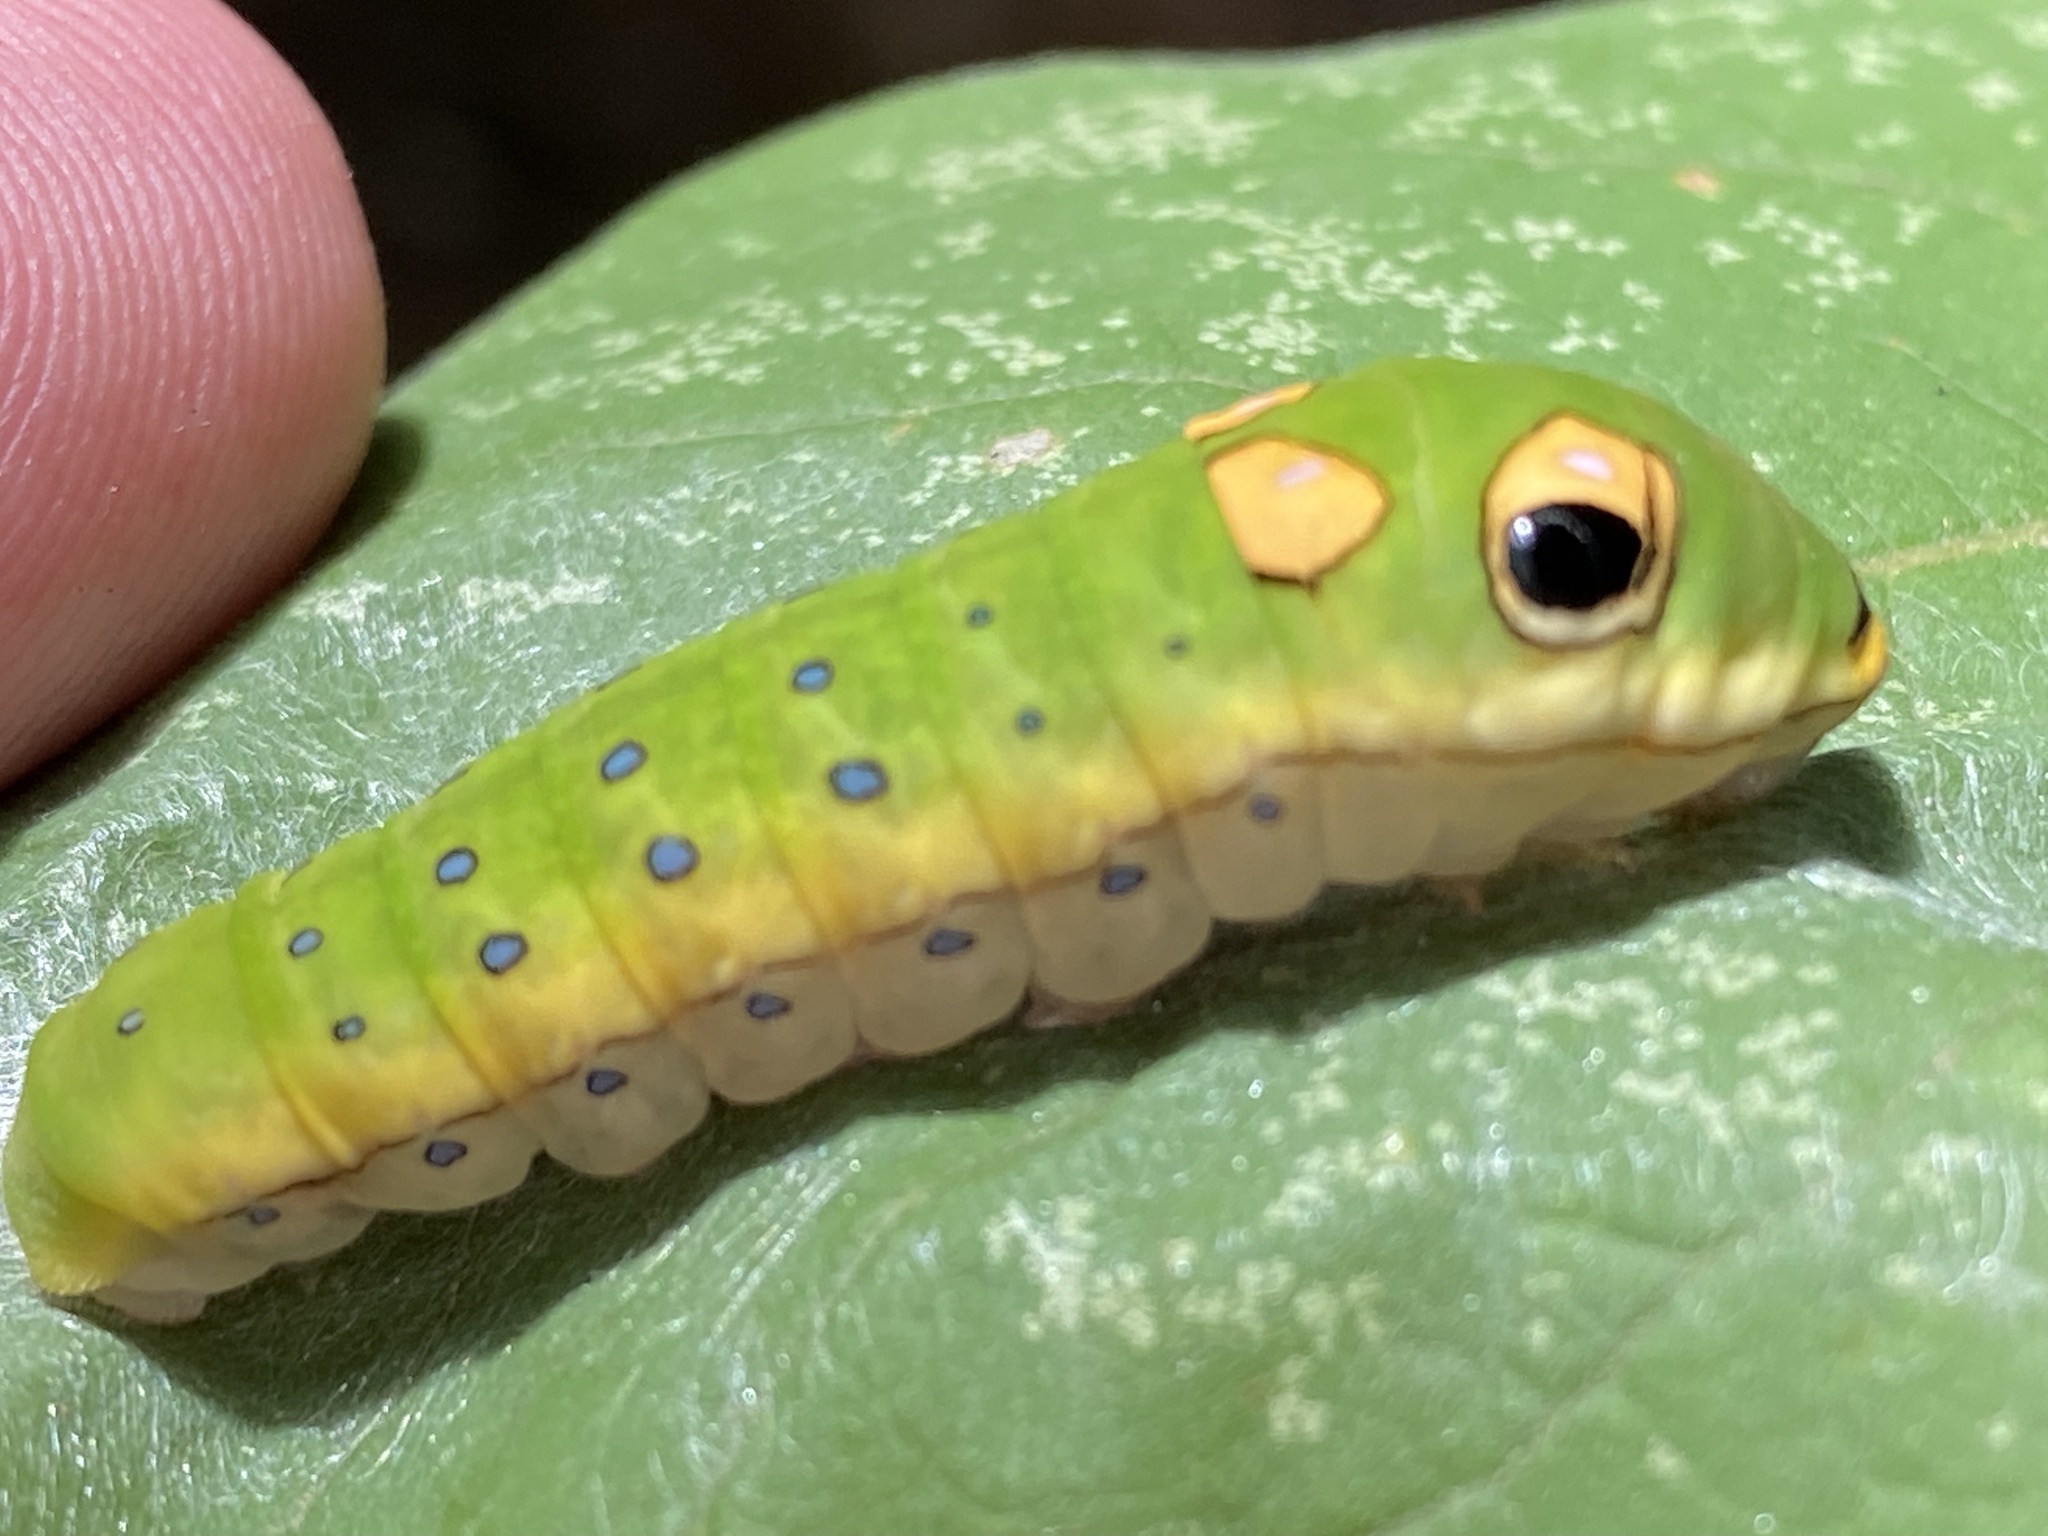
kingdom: Animalia
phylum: Arthropoda
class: Insecta
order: Lepidoptera
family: Papilionidae
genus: Papilio
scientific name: Papilio troilus
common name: Spicebush swallowtail
